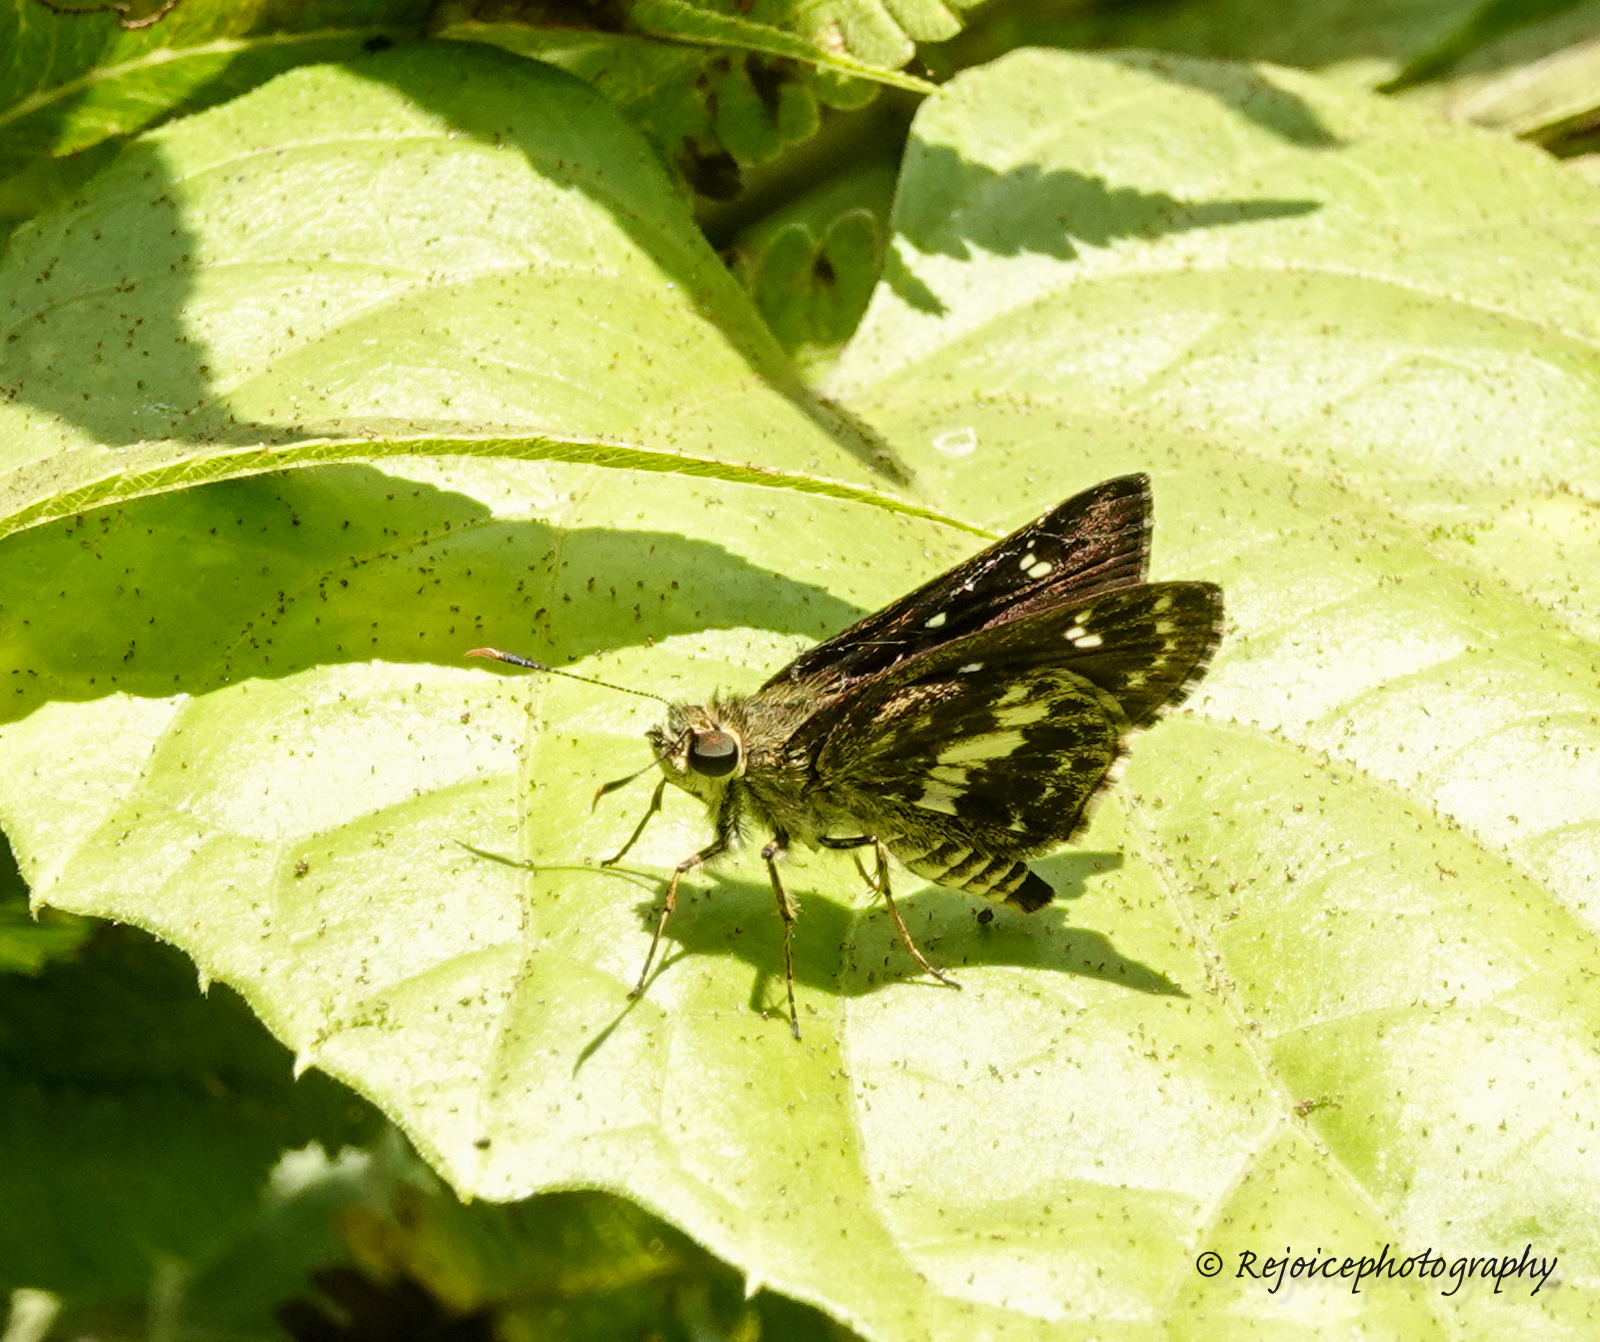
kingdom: Animalia
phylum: Arthropoda
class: Insecta
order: Lepidoptera
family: Hesperiidae
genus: Halpe
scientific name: Halpe porus
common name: Moore's ace
